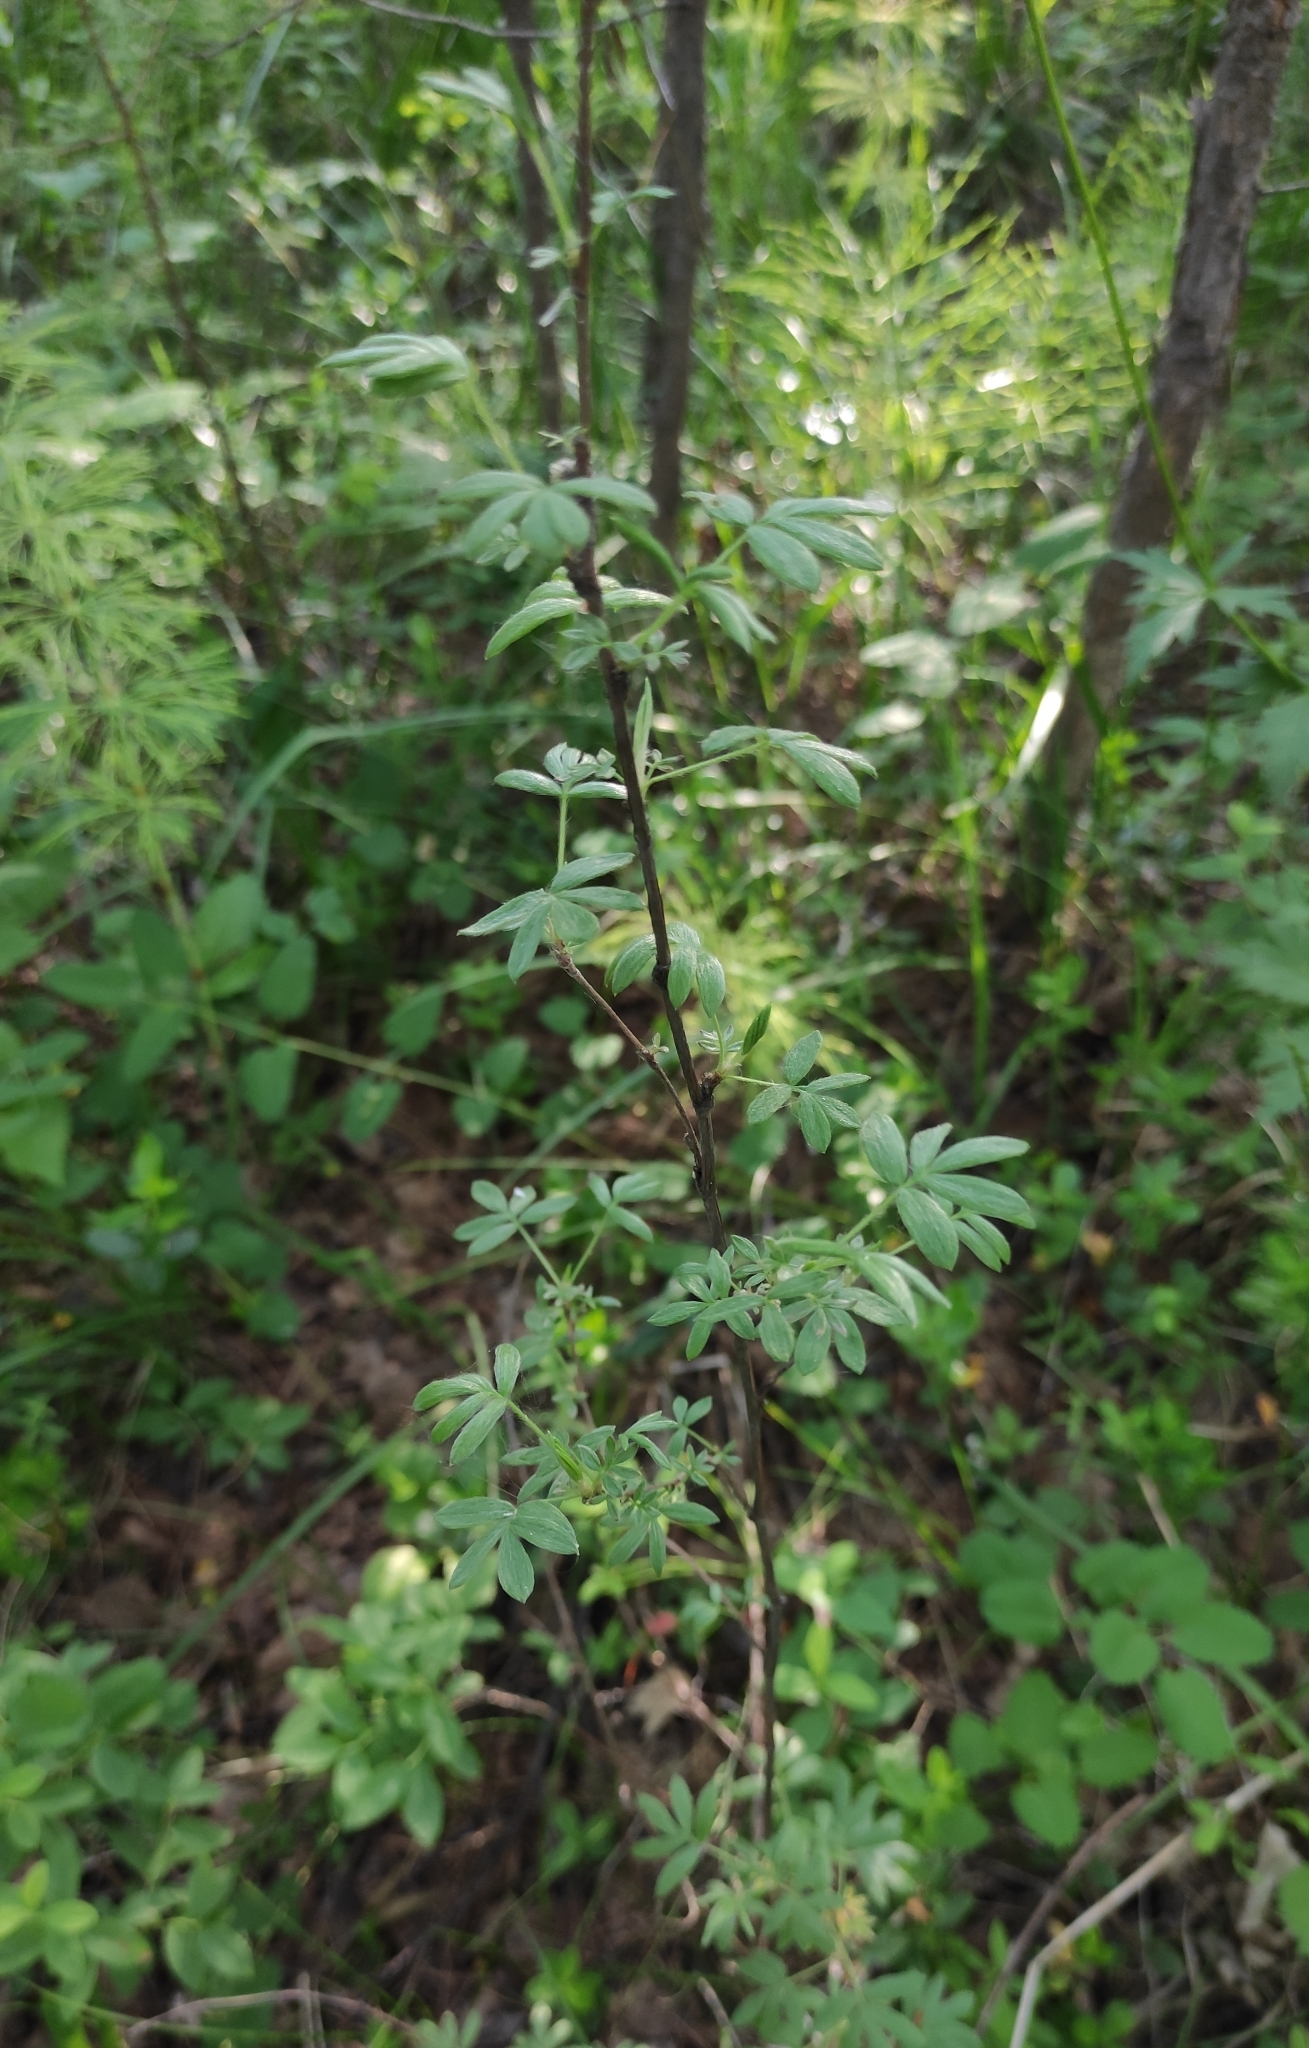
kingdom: Plantae
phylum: Tracheophyta
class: Magnoliopsida
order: Rosales
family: Rosaceae
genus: Dasiphora
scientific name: Dasiphora fruticosa
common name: Shrubby cinquefoil
